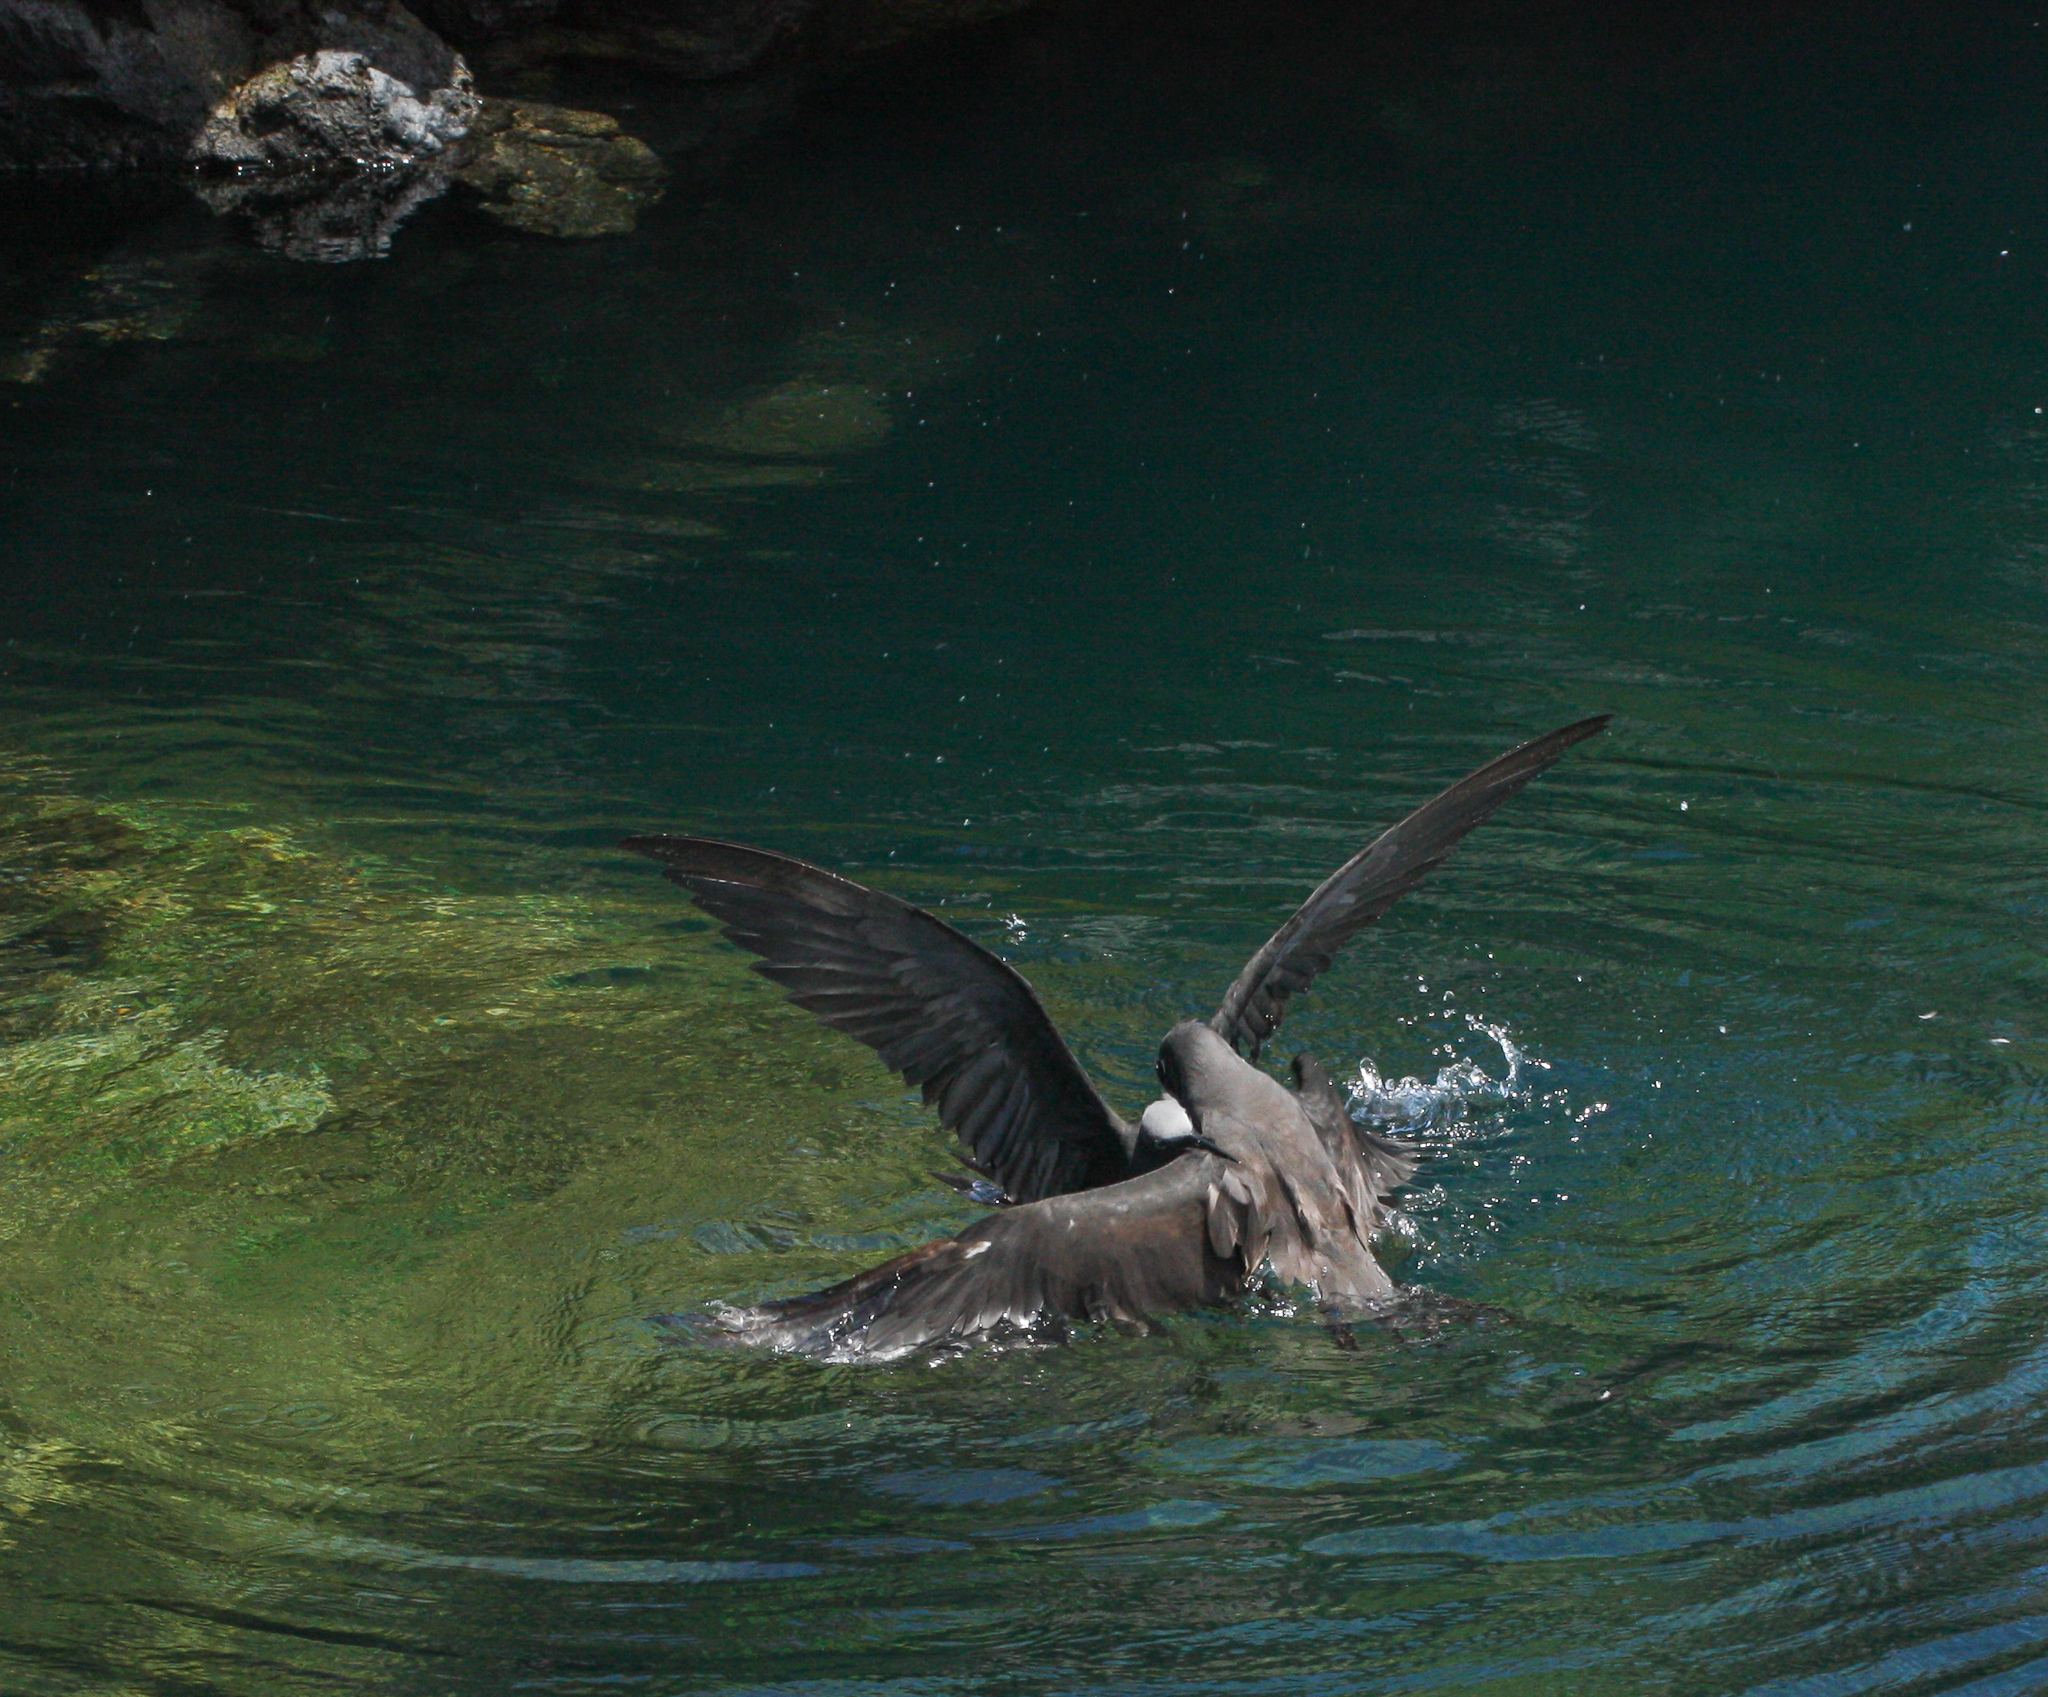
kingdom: Animalia
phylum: Chordata
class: Aves
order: Charadriiformes
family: Laridae
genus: Anous
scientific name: Anous stolidus
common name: Brown noddy
